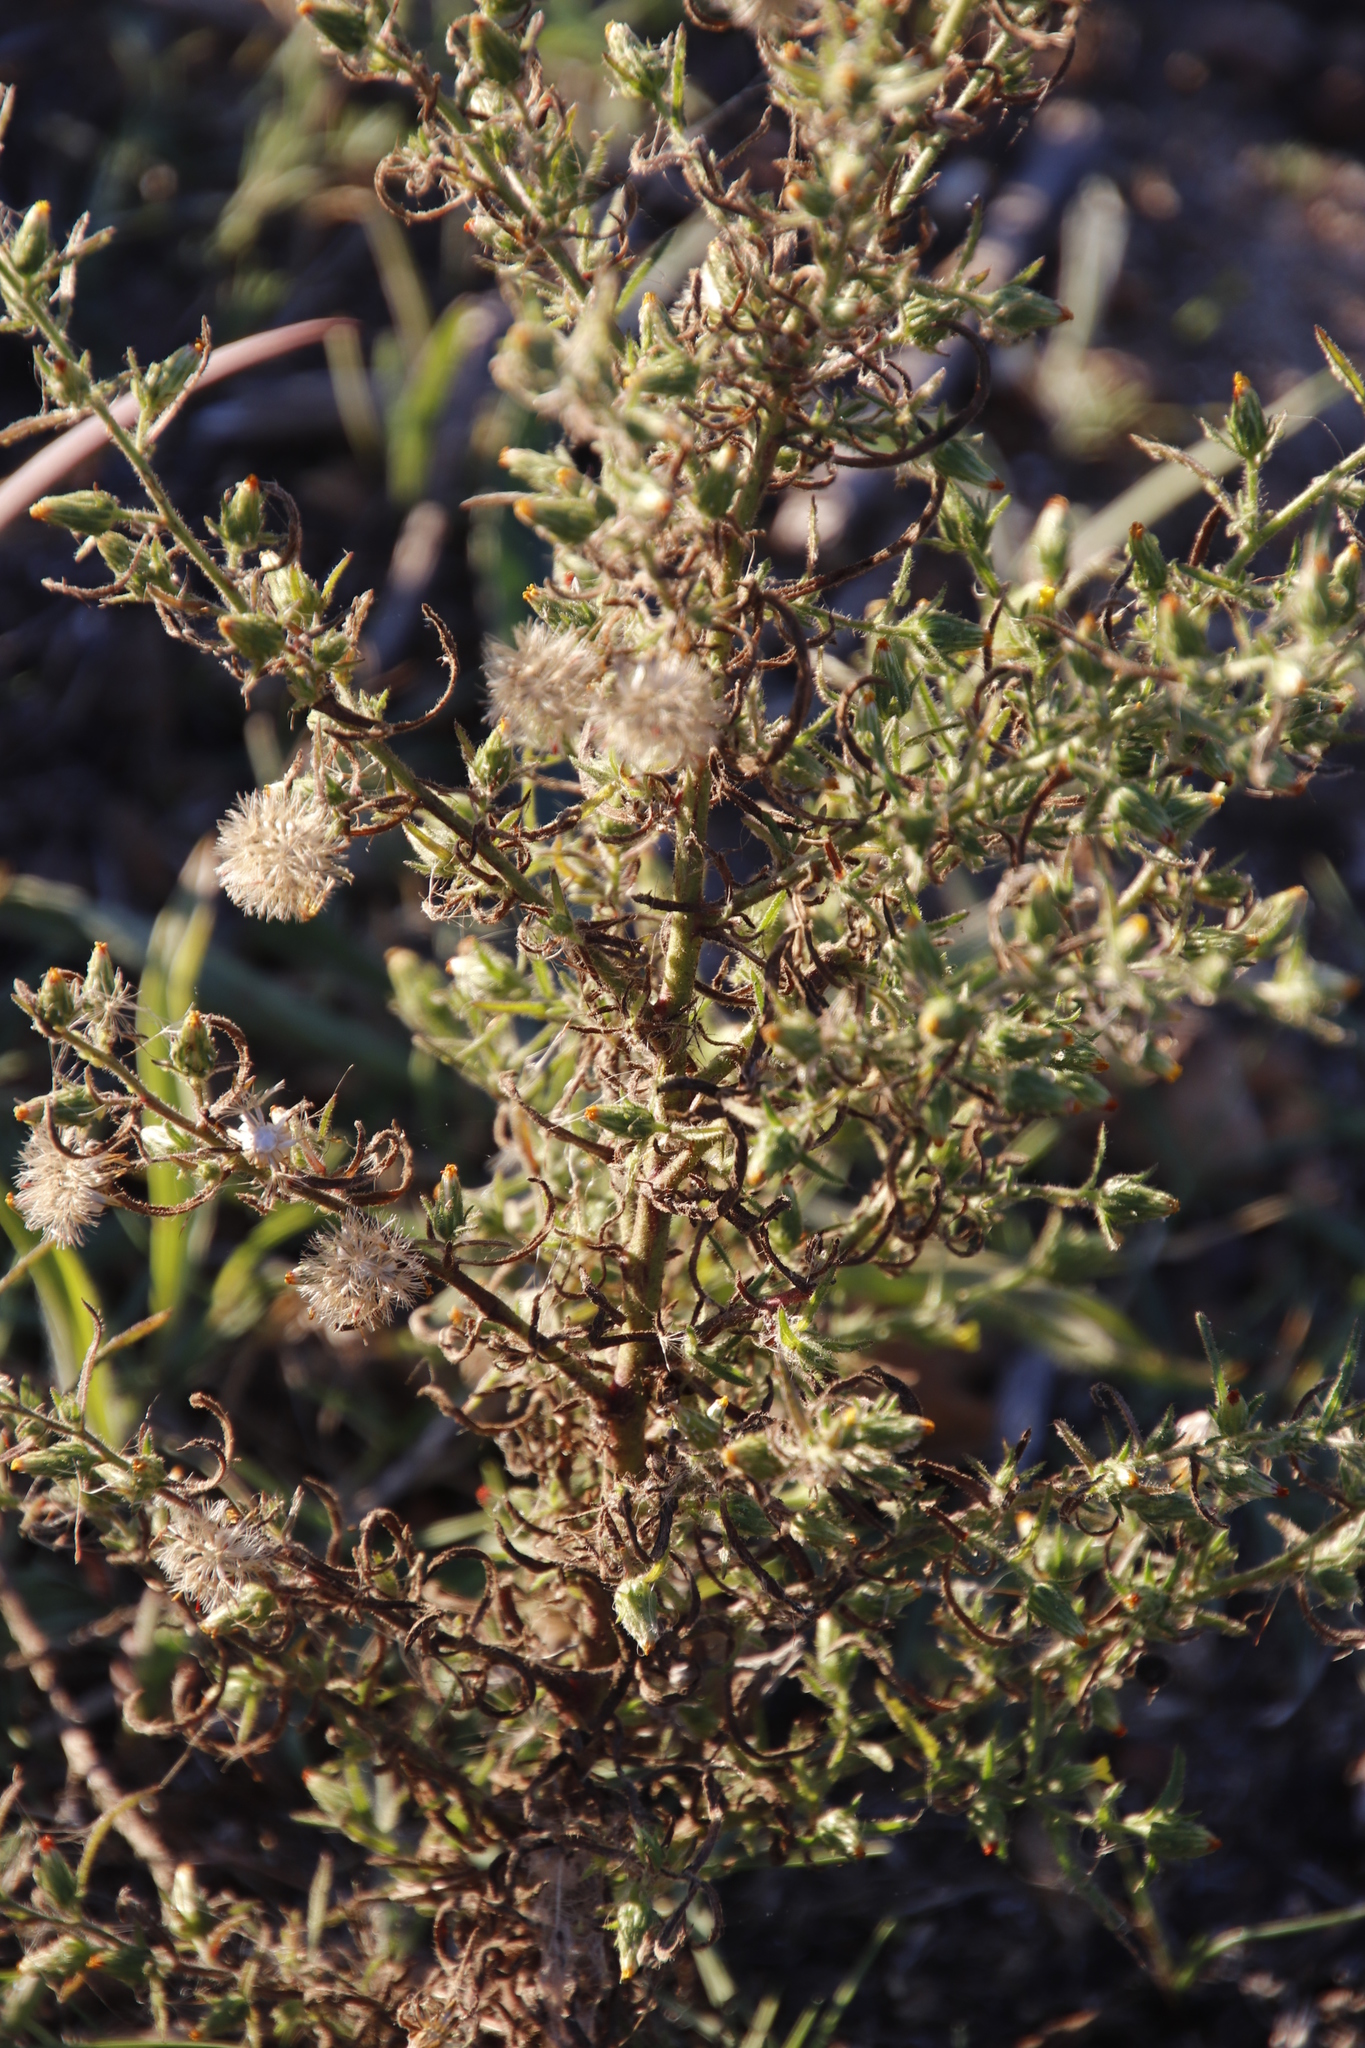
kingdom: Plantae
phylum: Tracheophyta
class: Magnoliopsida
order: Asterales
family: Asteraceae
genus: Dittrichia
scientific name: Dittrichia graveolens
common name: Stinking fleabane
